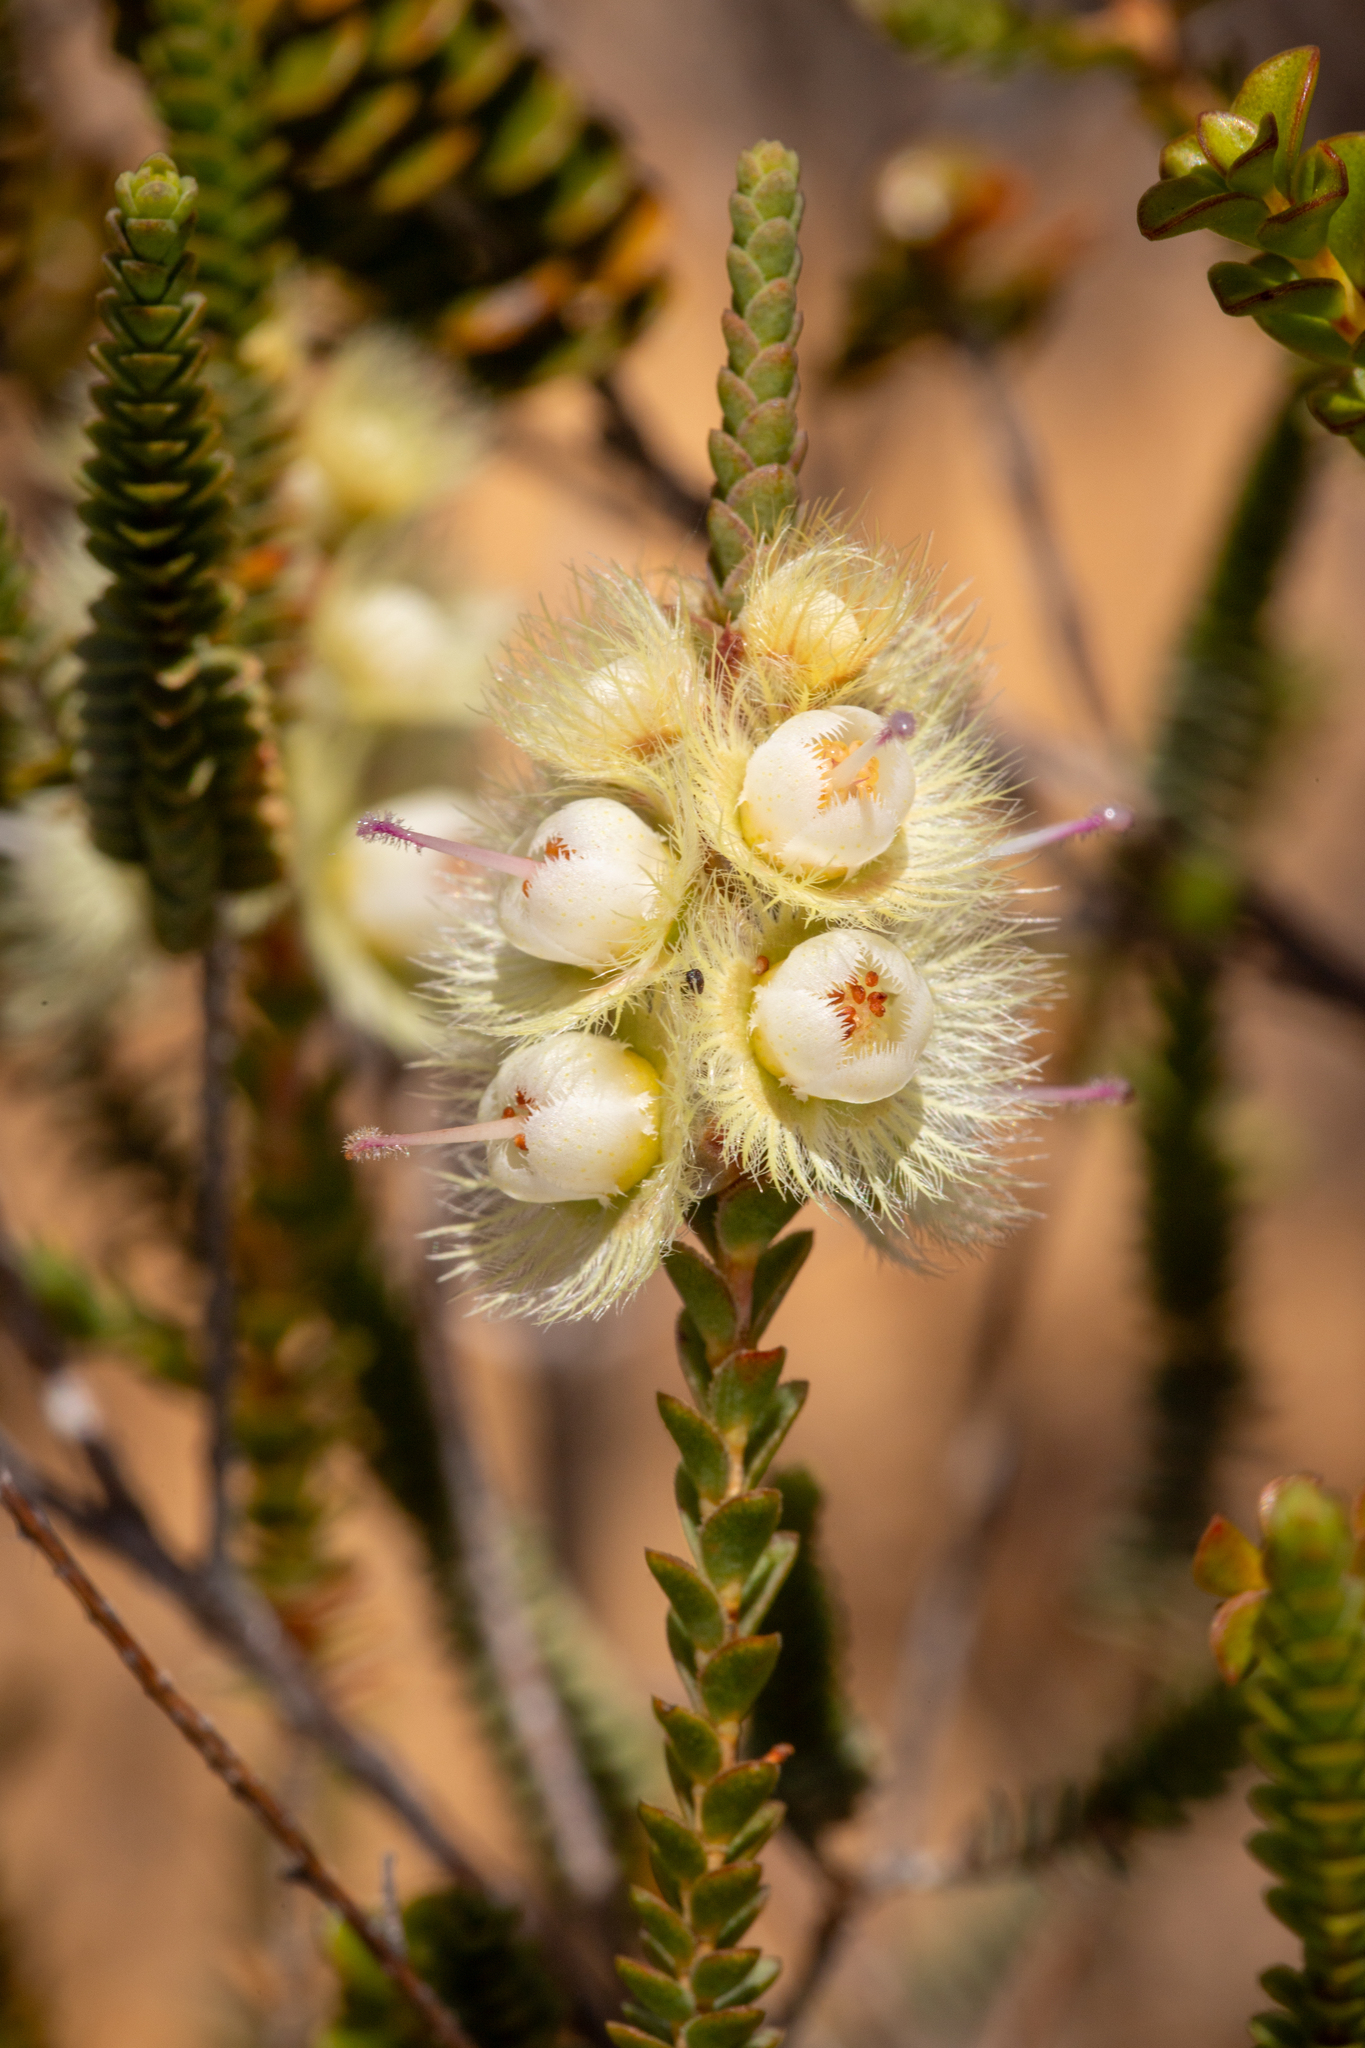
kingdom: Plantae
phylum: Tracheophyta
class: Magnoliopsida
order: Myrtales
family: Myrtaceae
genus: Verticordia
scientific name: Verticordia spicata
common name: Spike feather-flower
